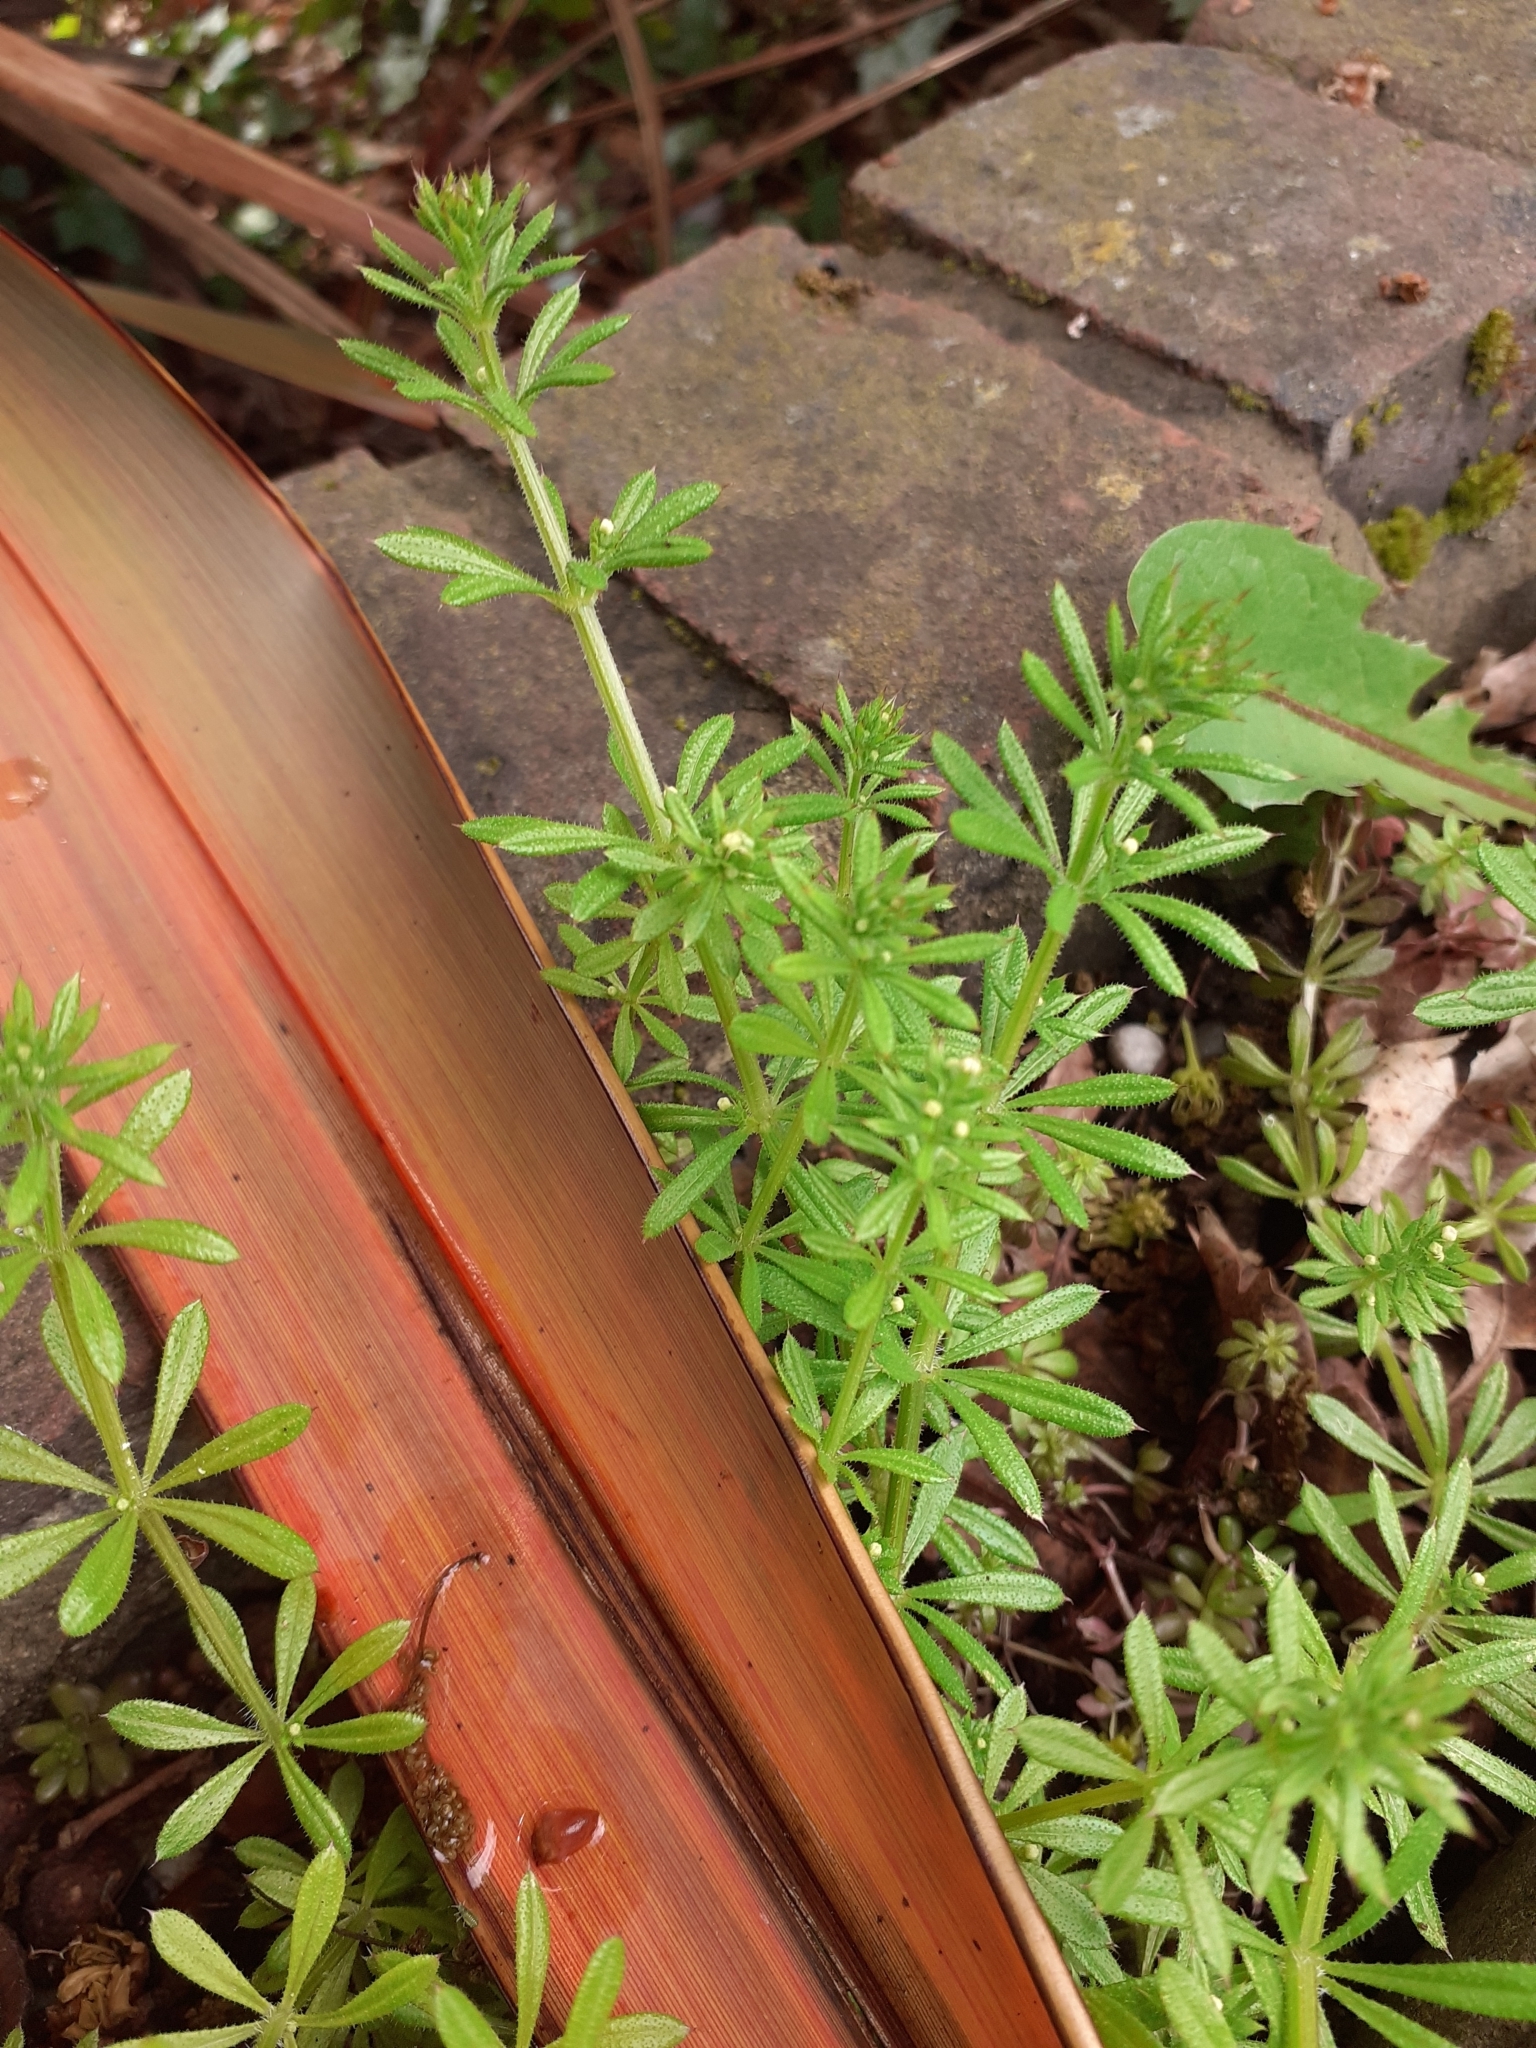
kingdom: Plantae
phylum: Tracheophyta
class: Magnoliopsida
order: Gentianales
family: Rubiaceae
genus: Galium
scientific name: Galium aparine
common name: Cleavers
